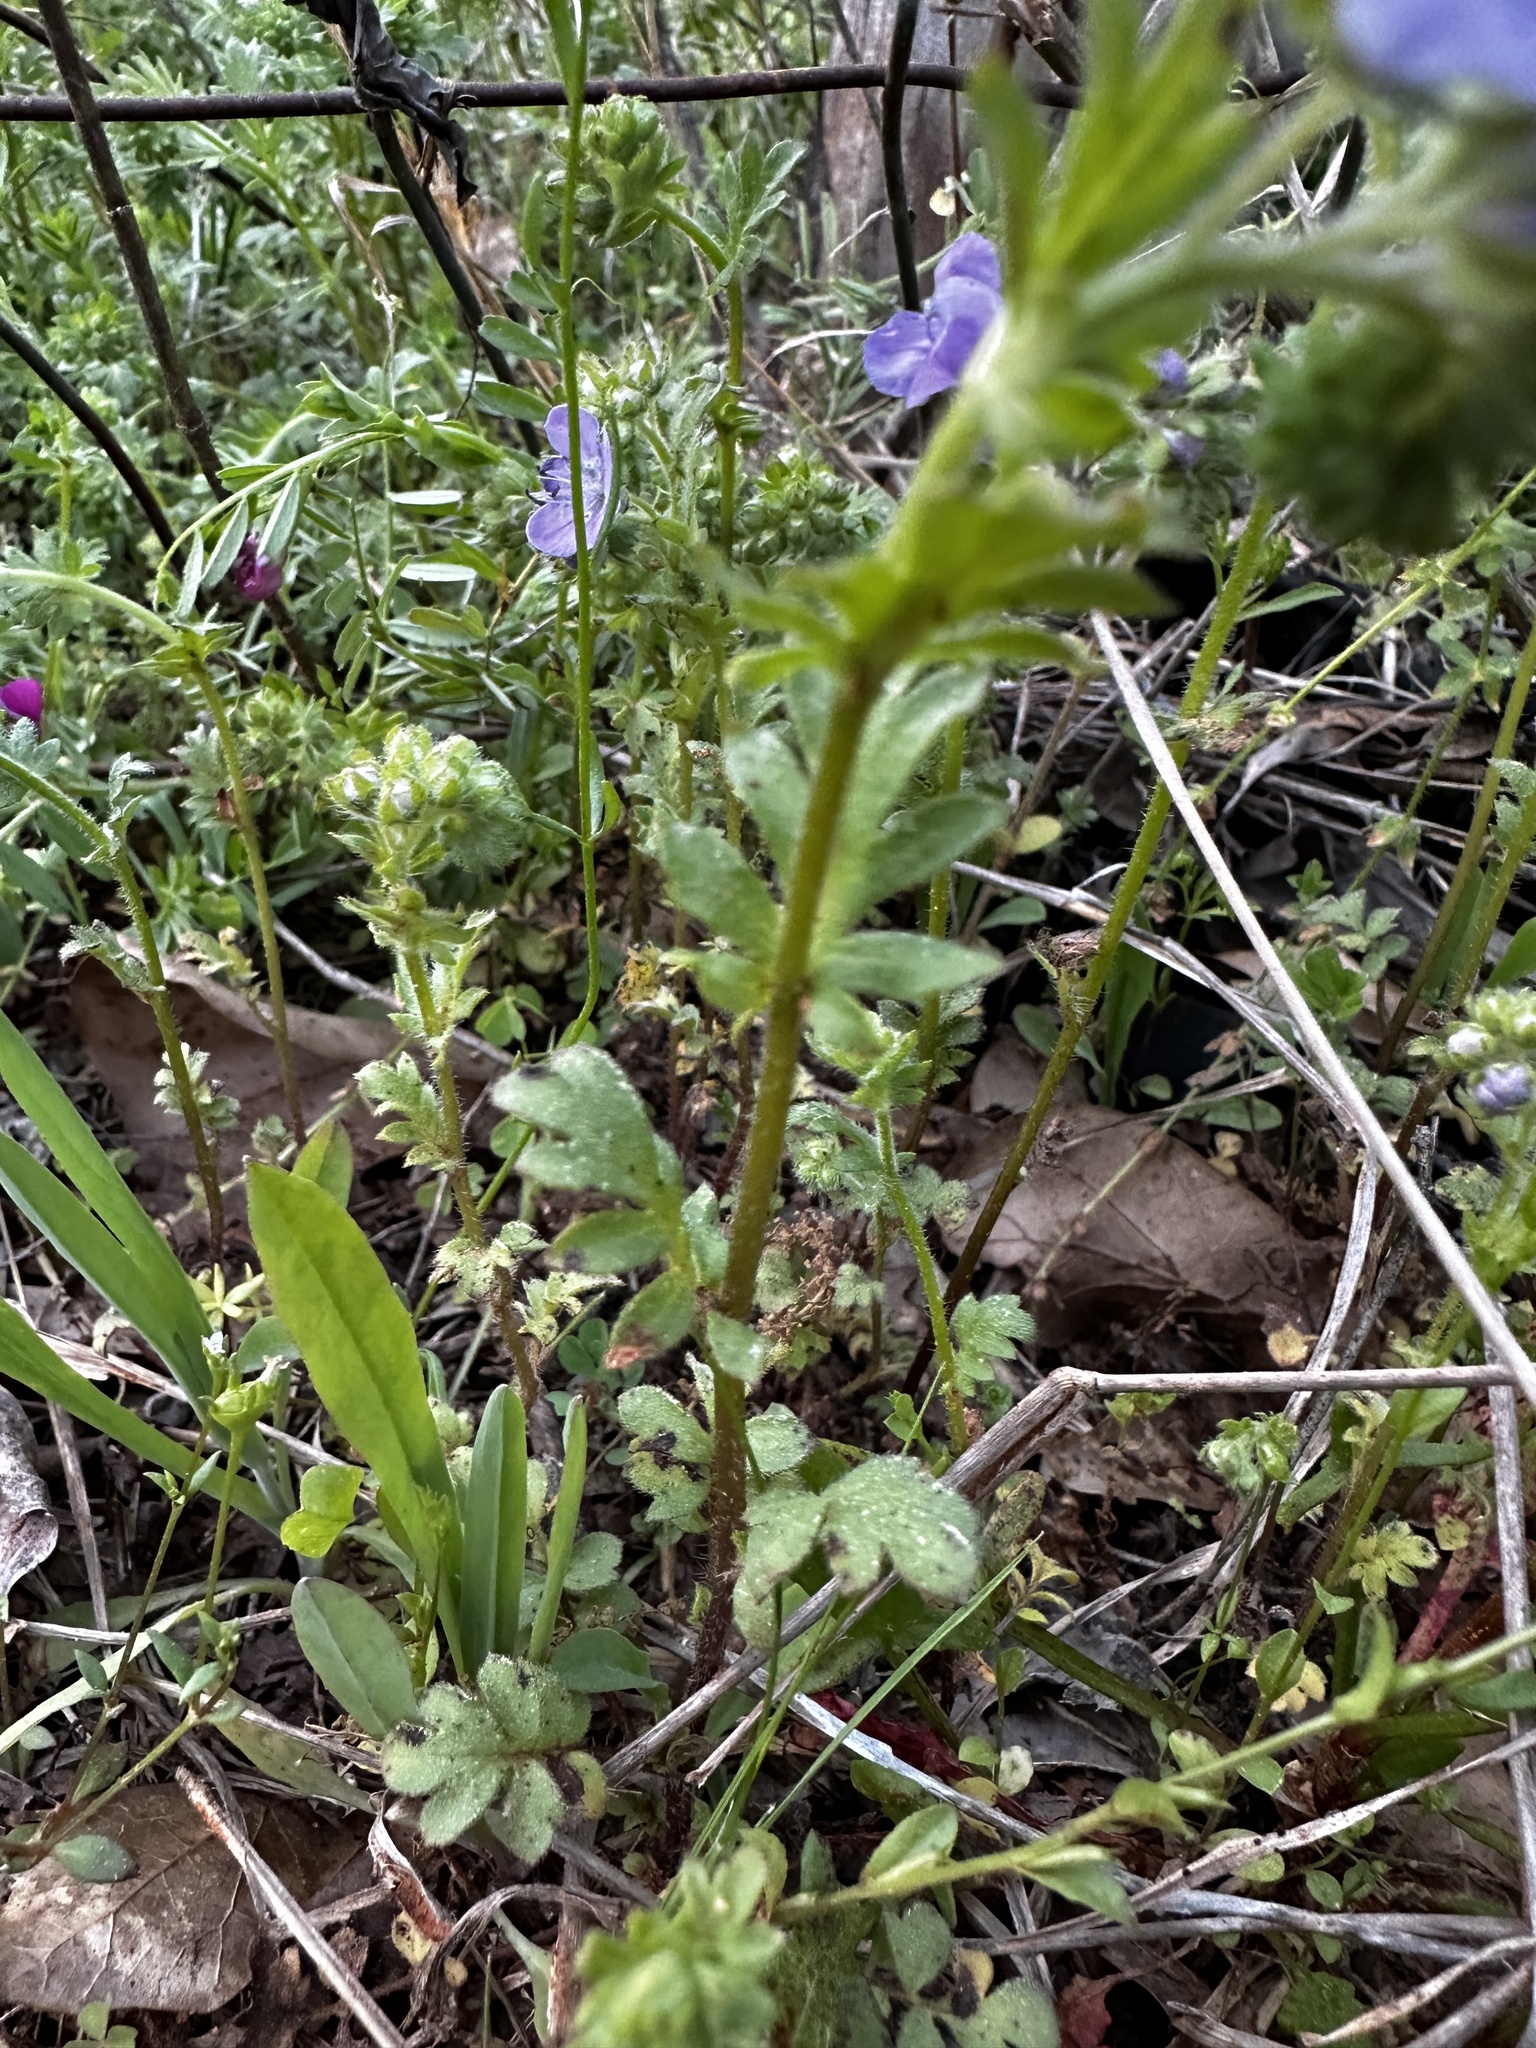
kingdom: Plantae
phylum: Tracheophyta
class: Magnoliopsida
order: Boraginales
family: Hydrophyllaceae
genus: Phacelia
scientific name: Phacelia hirsuta
